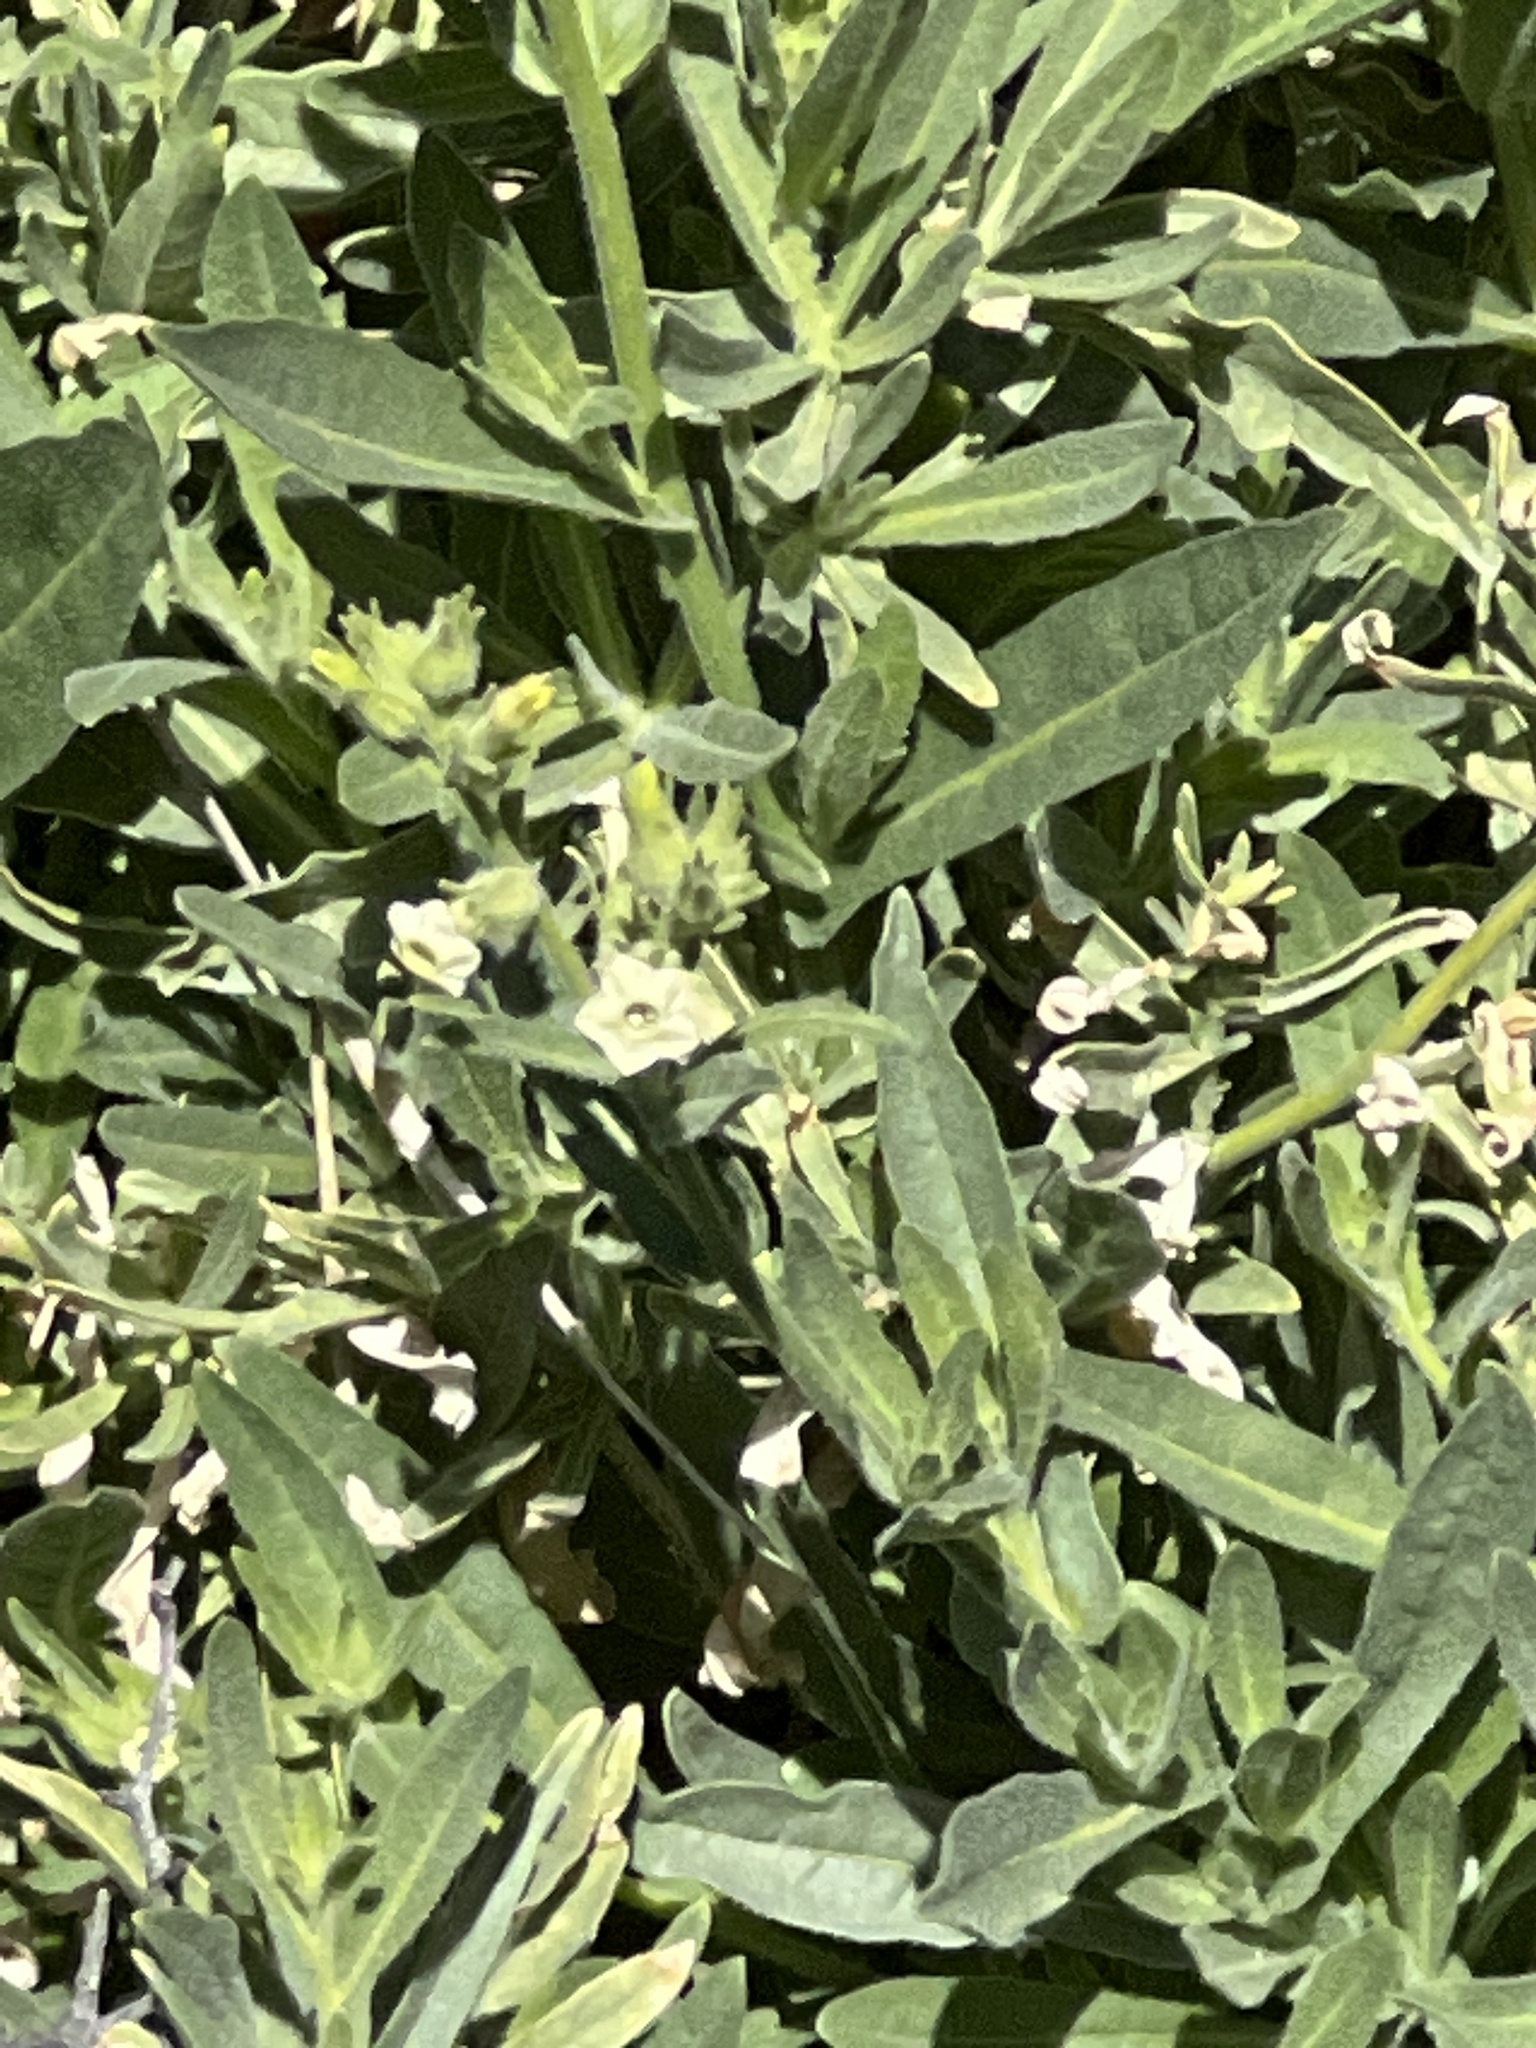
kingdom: Plantae
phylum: Tracheophyta
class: Magnoliopsida
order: Solanales
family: Solanaceae
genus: Nicotiana
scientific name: Nicotiana obtusifolia
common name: Desert tobacco
